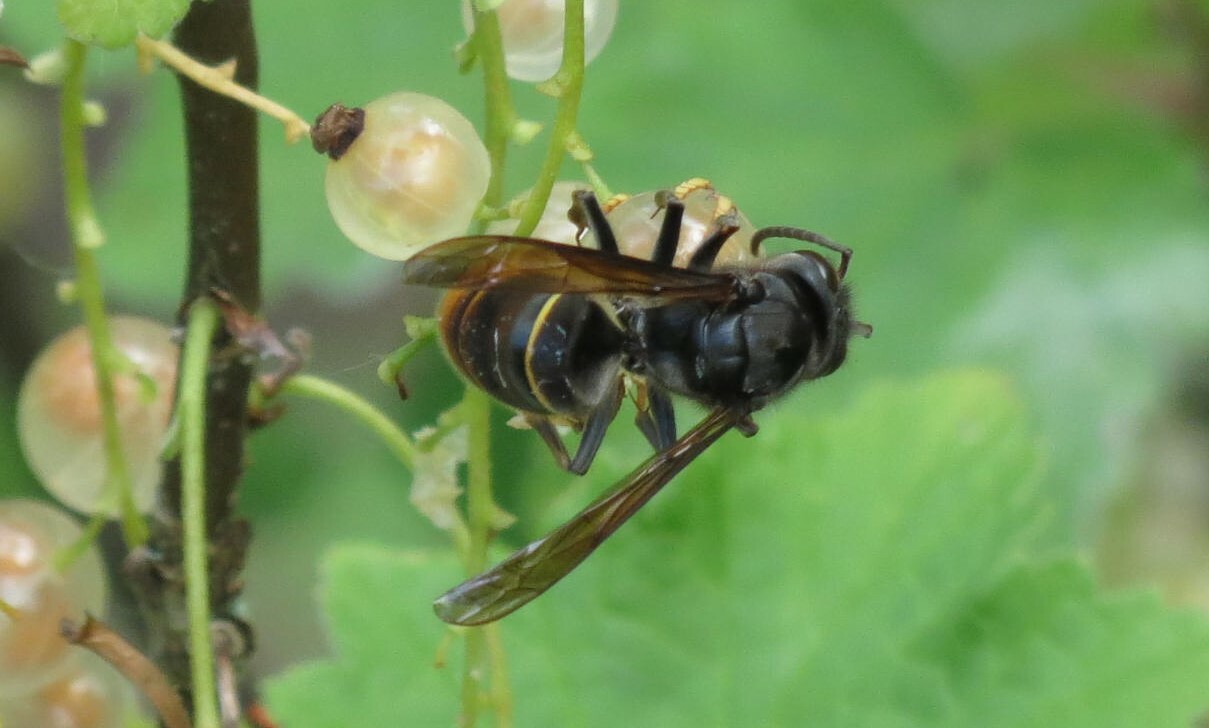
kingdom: Animalia
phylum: Arthropoda
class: Insecta
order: Hymenoptera
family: Vespidae
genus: Vespa
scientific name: Vespa velutina
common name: Asian hornet
